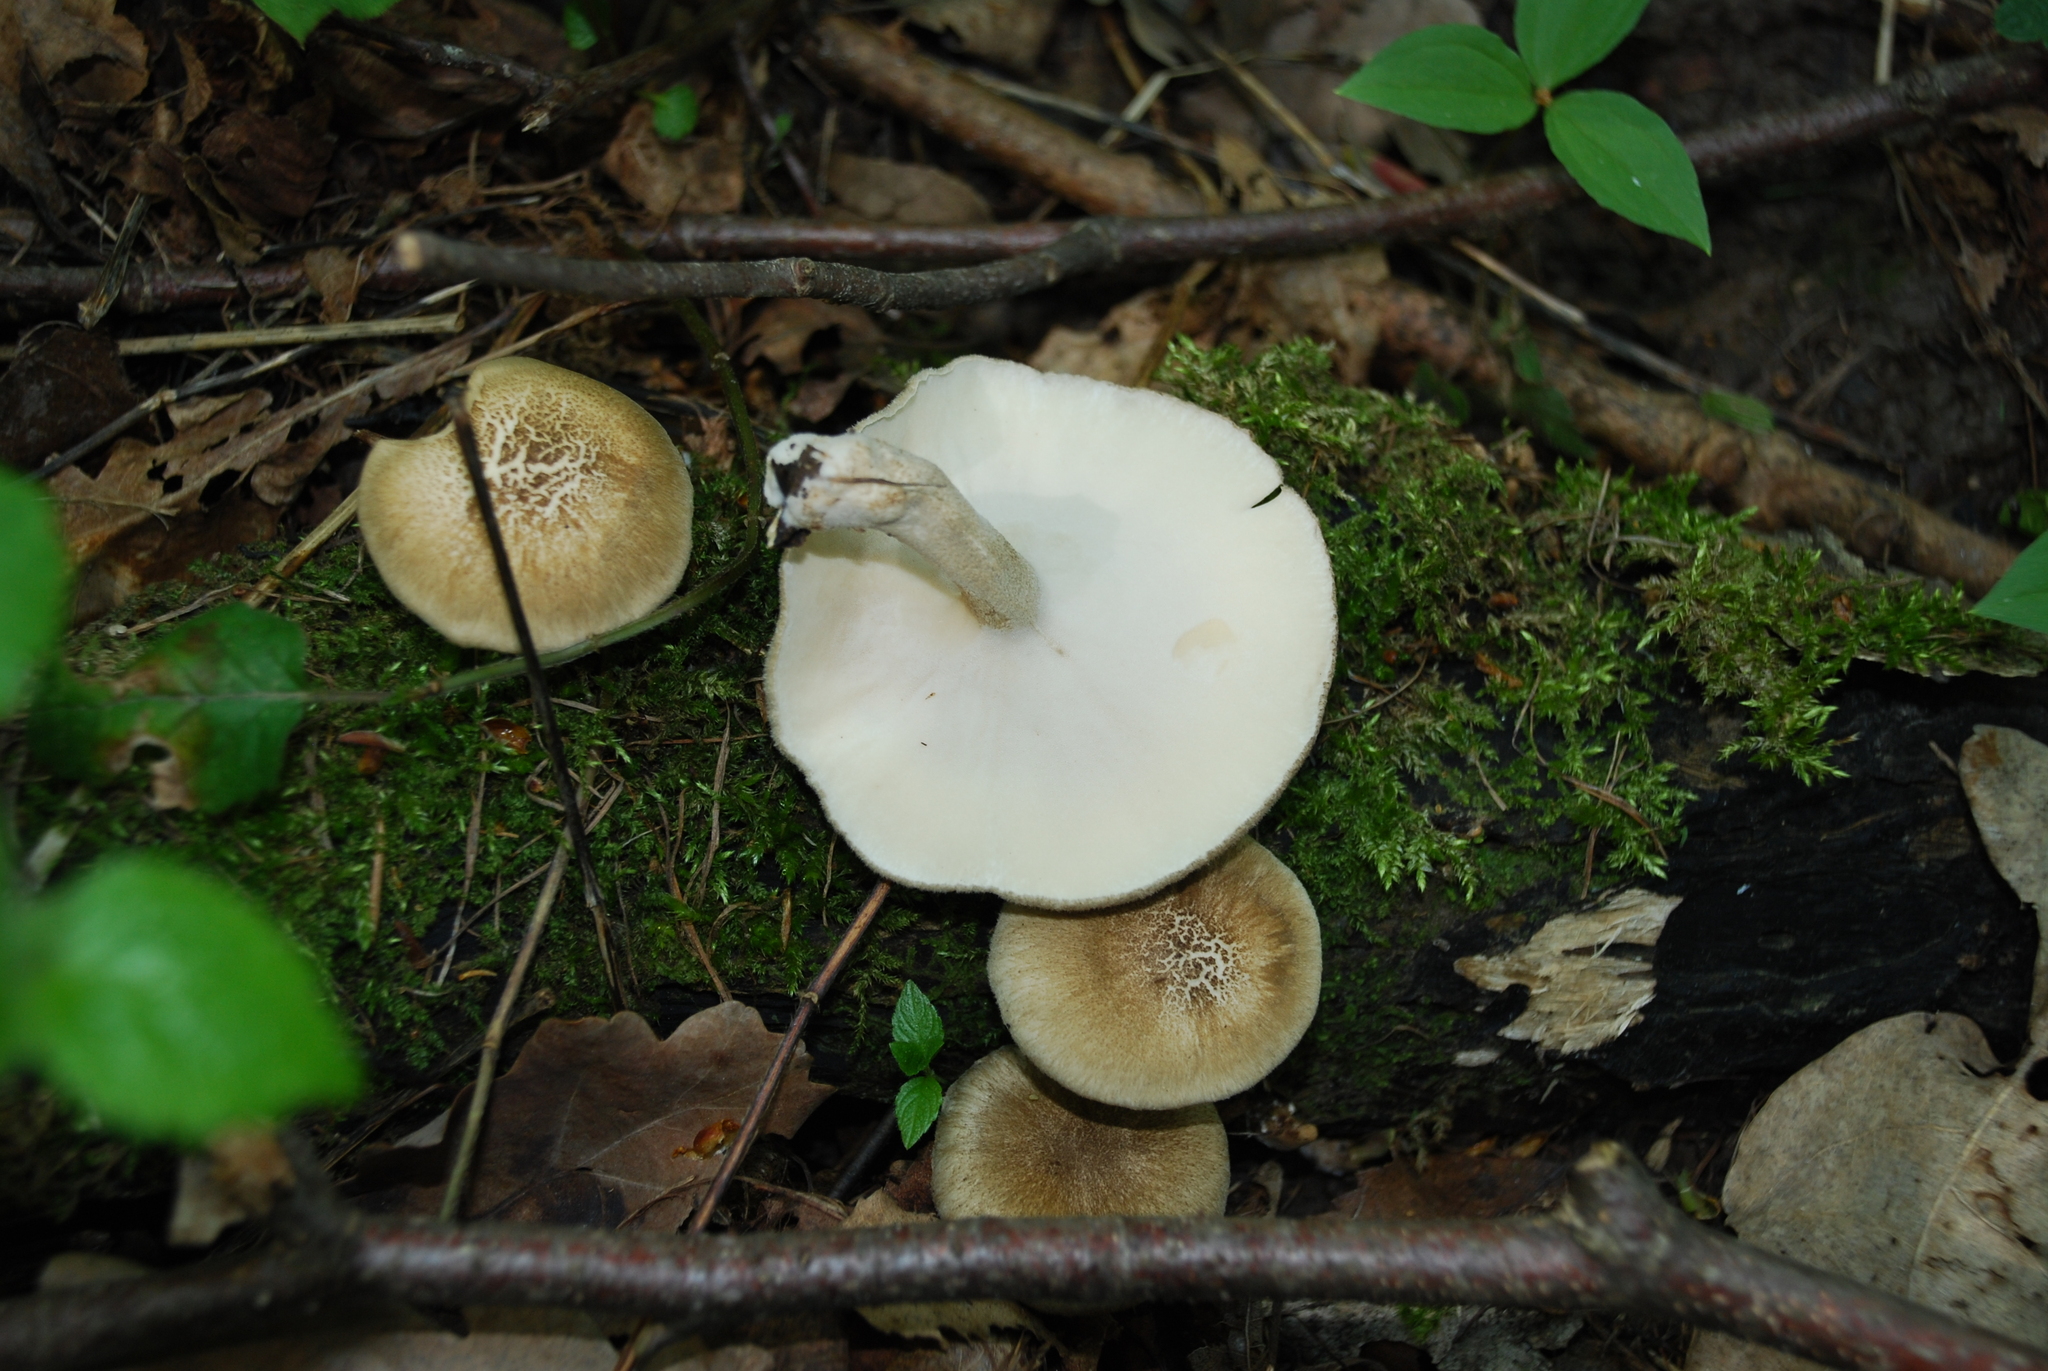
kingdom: Fungi
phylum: Basidiomycota
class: Agaricomycetes
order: Polyporales
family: Polyporaceae
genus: Lentinus
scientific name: Lentinus substrictus
